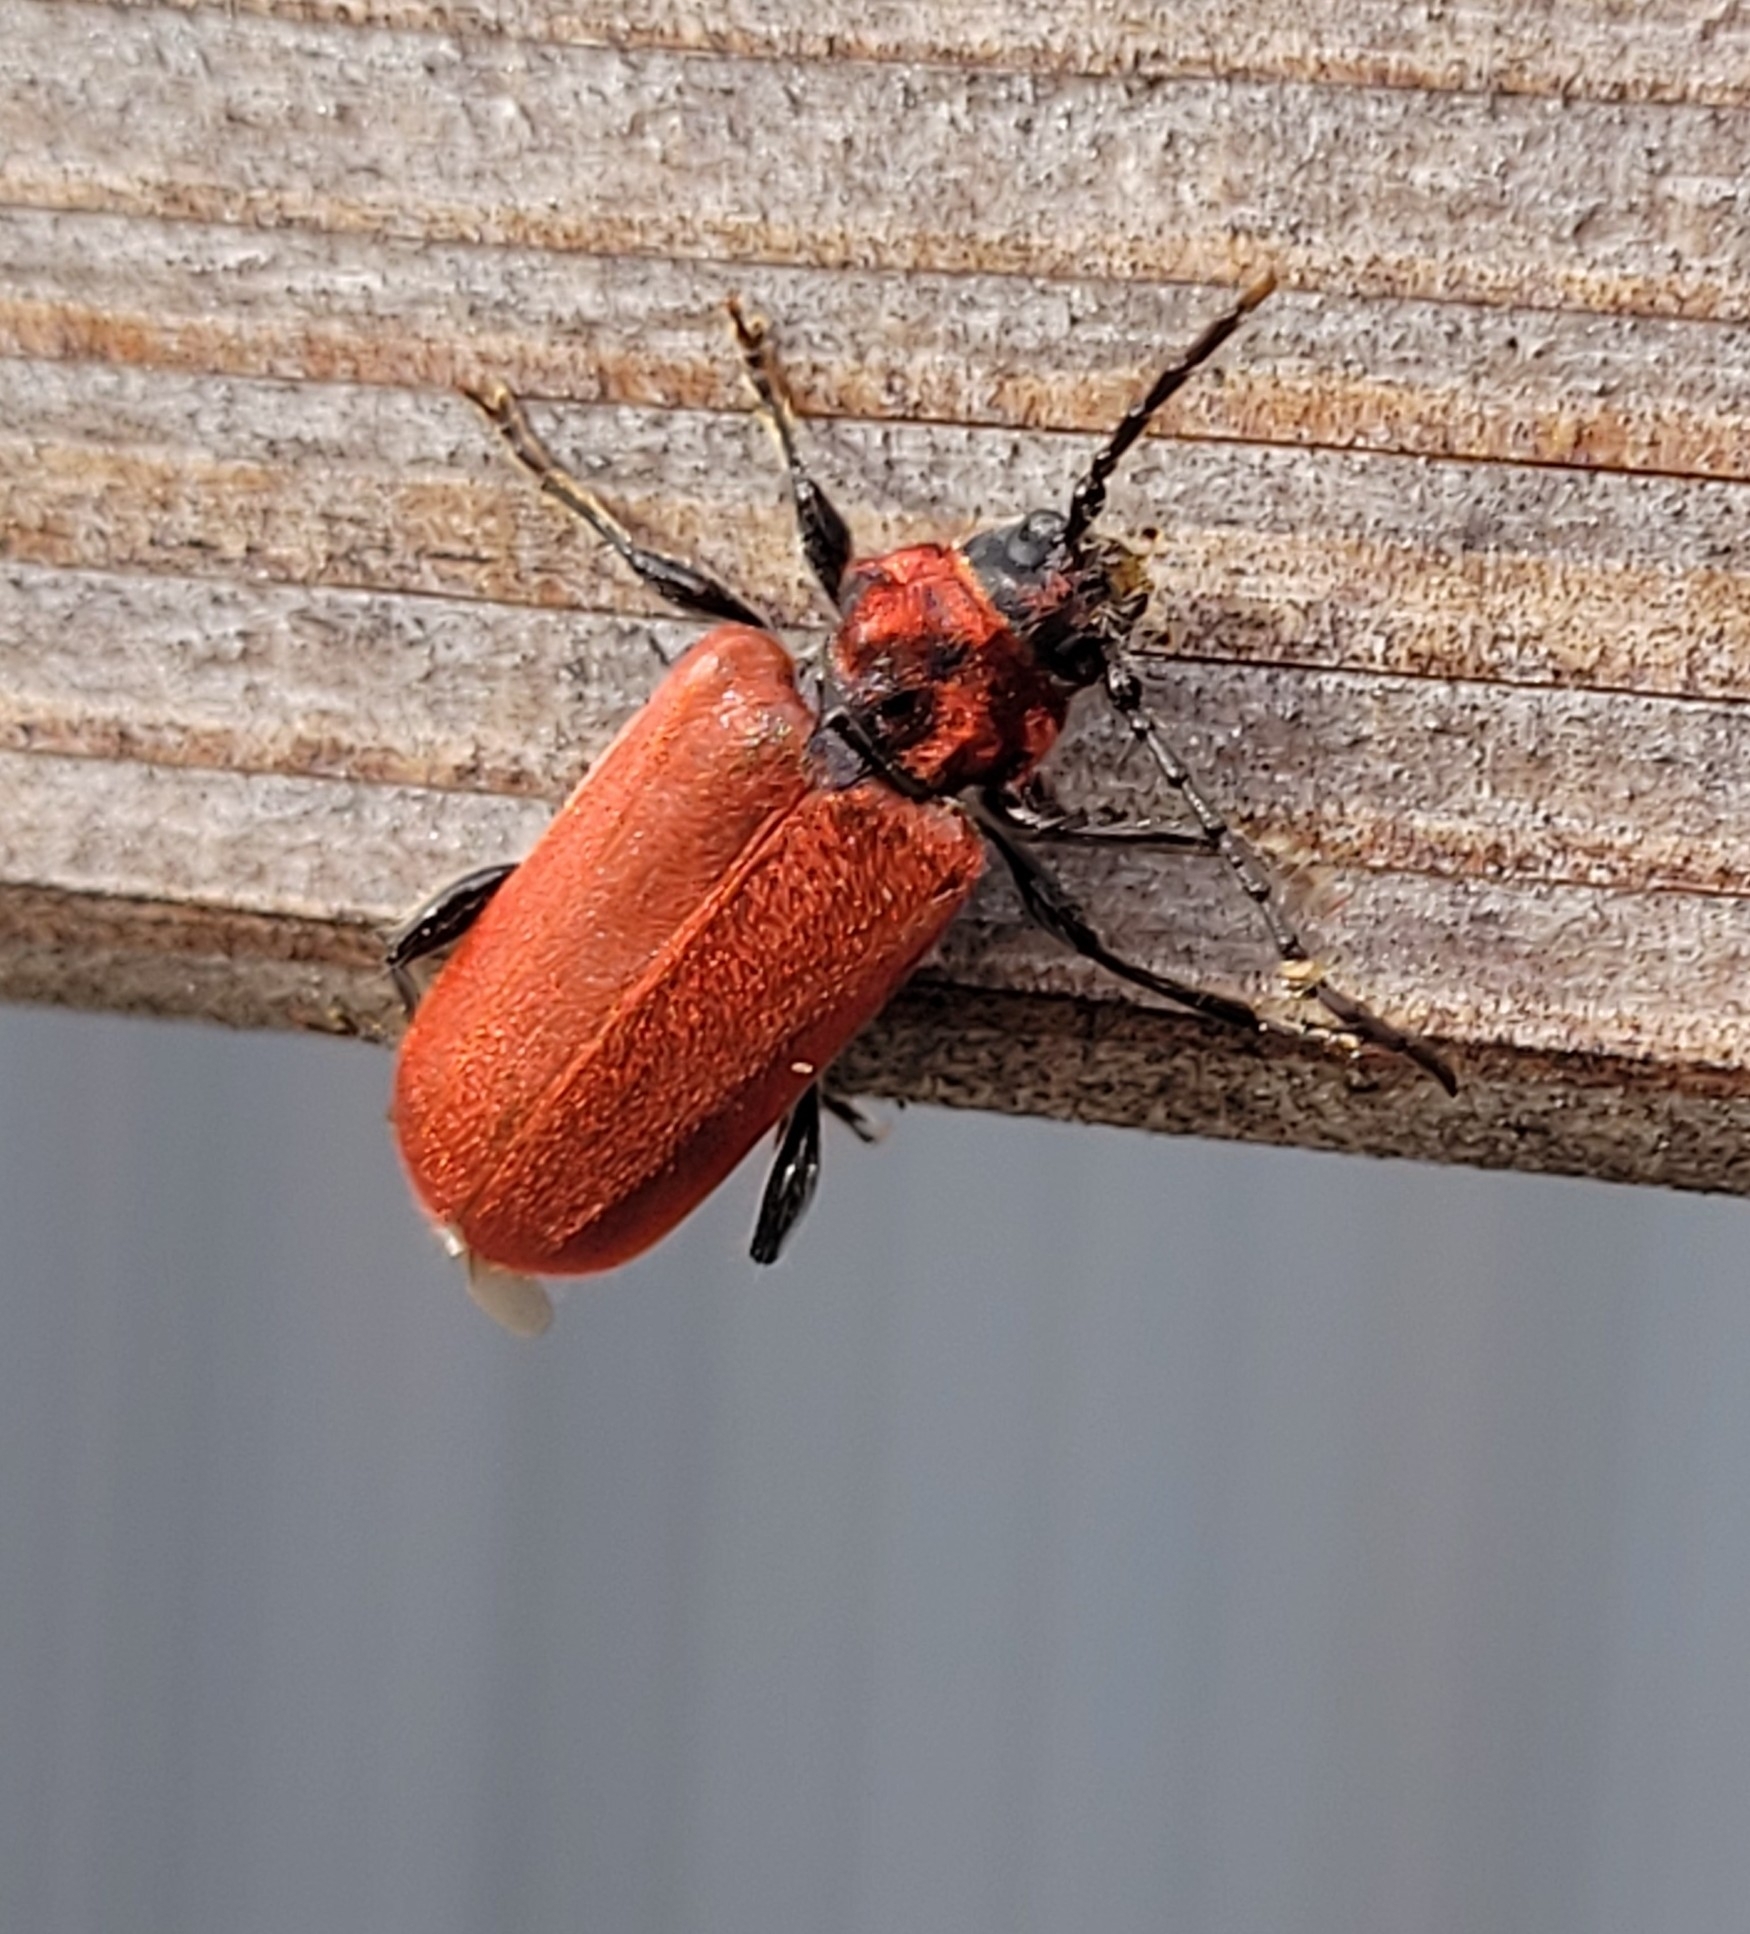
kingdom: Animalia
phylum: Arthropoda
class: Insecta
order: Coleoptera
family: Cerambycidae
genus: Pyrrhidium
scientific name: Pyrrhidium sanguineum
